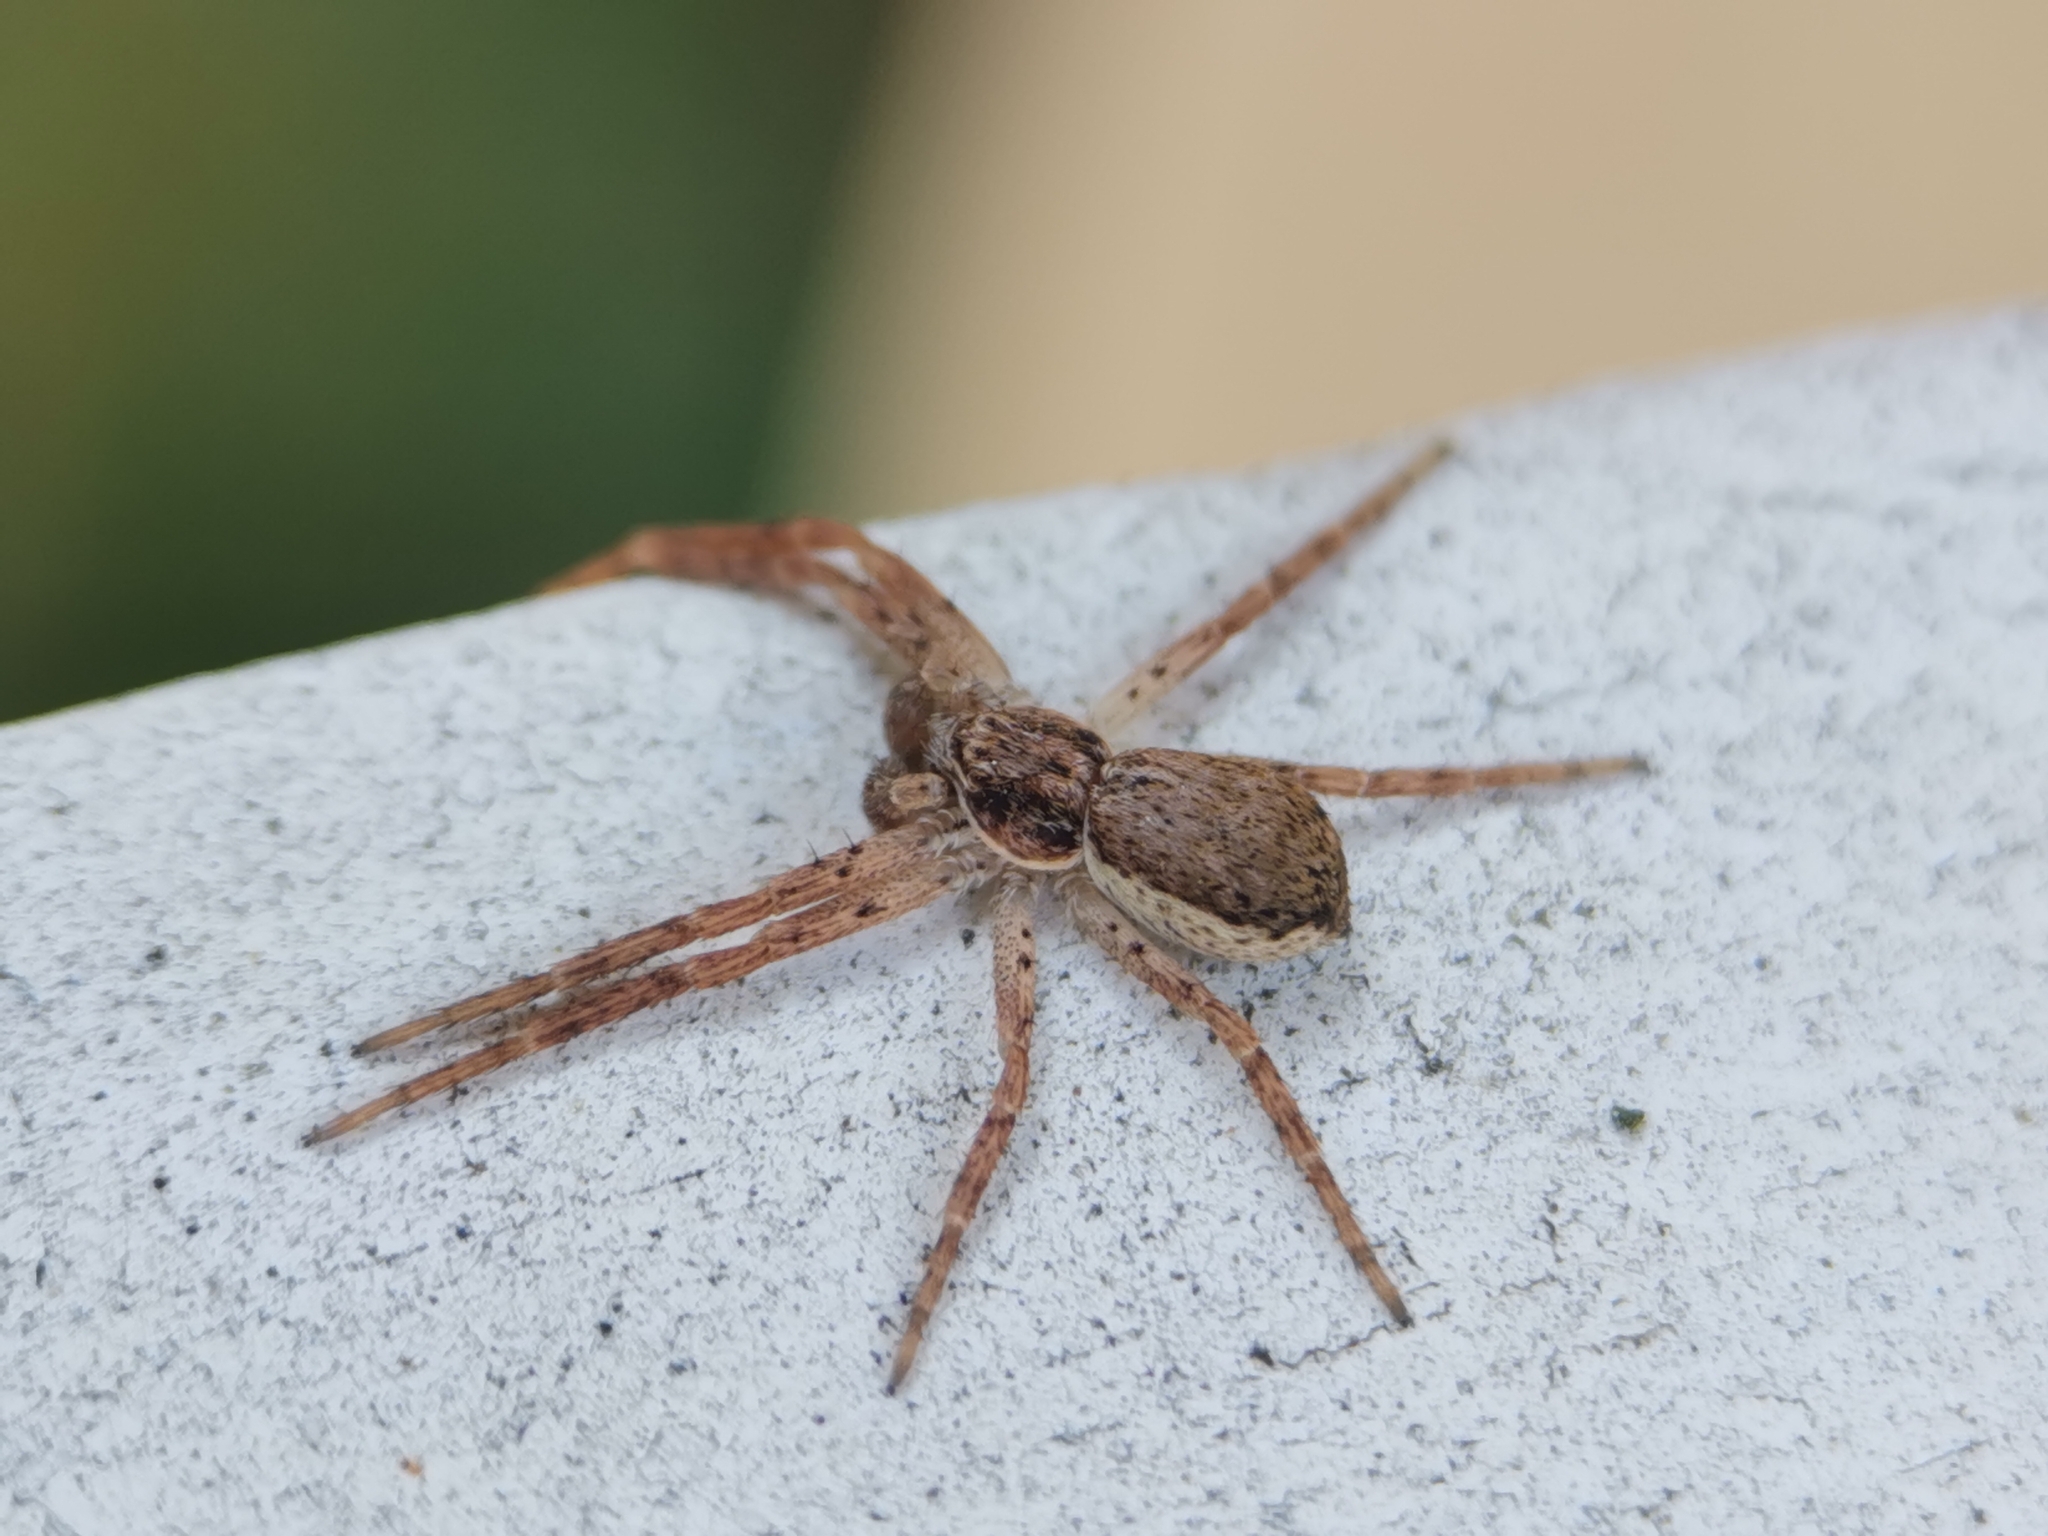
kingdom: Animalia
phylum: Arthropoda
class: Arachnida
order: Araneae
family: Philodromidae
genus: Philodromus
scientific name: Philodromus dispar
